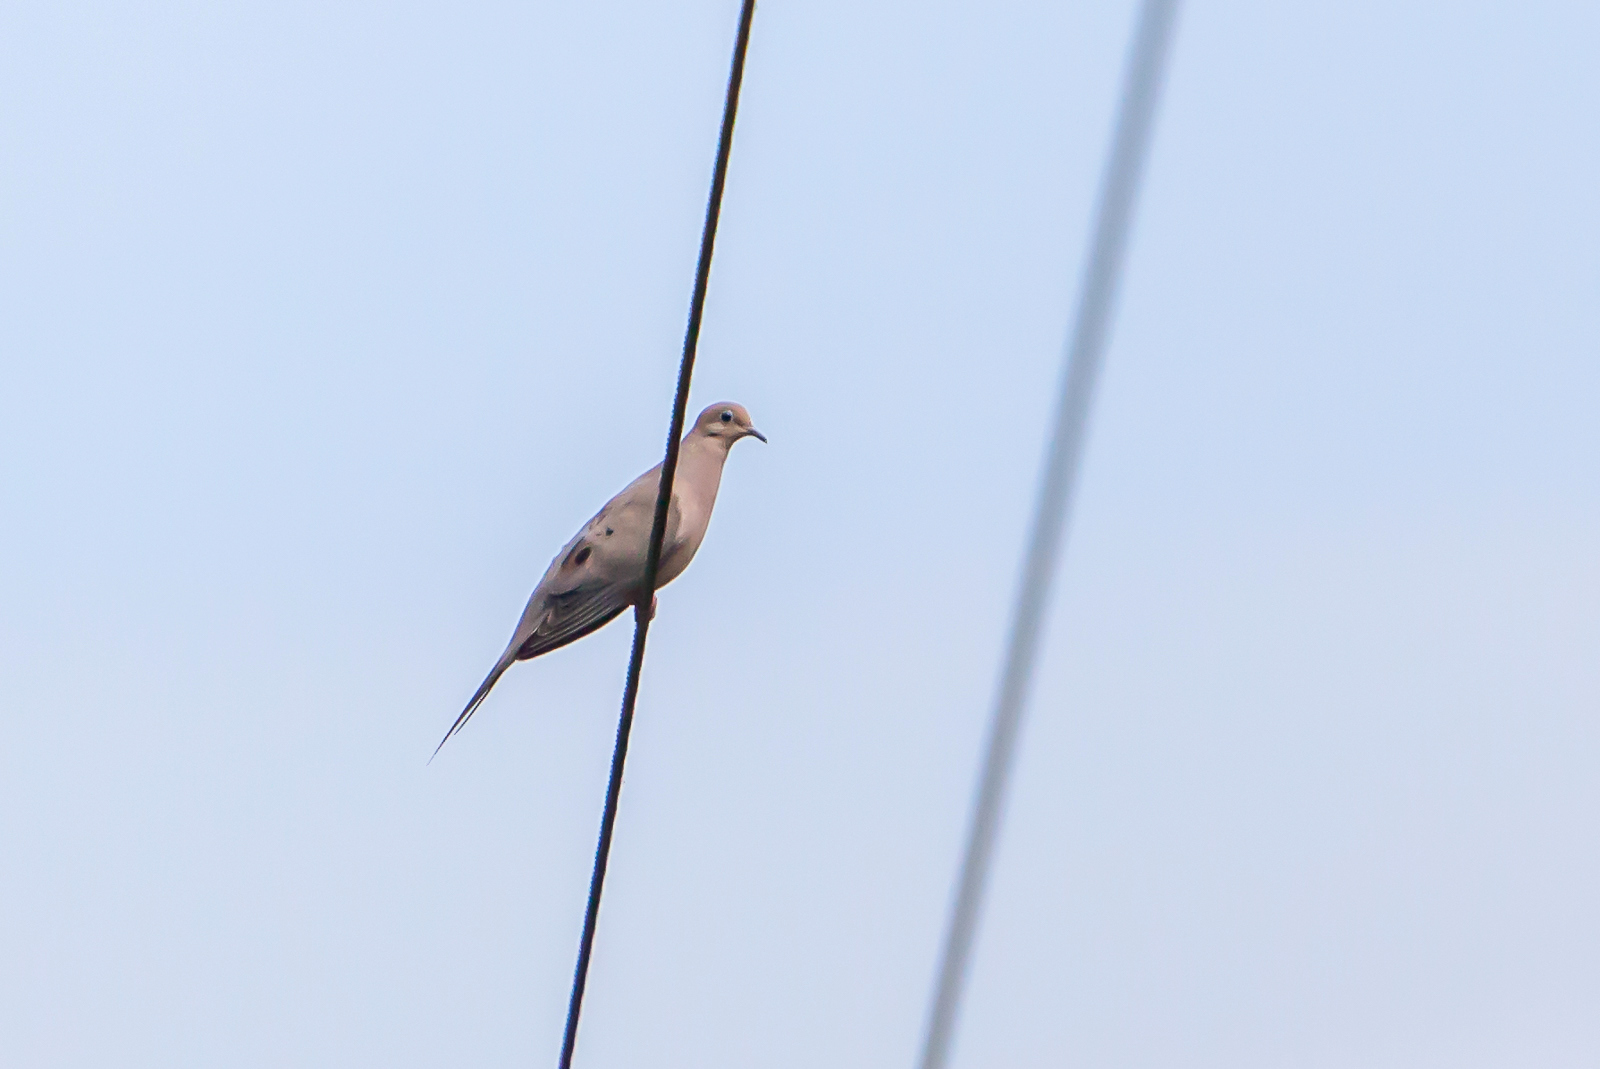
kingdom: Animalia
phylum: Chordata
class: Aves
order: Columbiformes
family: Columbidae
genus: Zenaida
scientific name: Zenaida macroura
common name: Mourning dove
